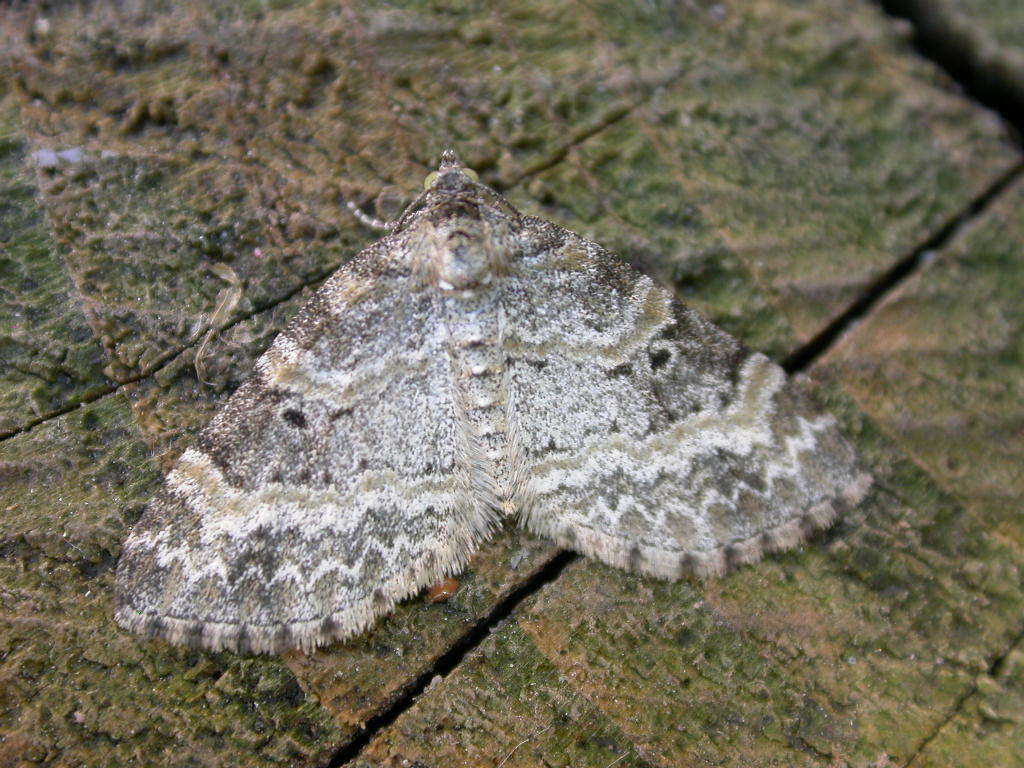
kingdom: Animalia
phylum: Arthropoda
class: Insecta
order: Lepidoptera
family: Geometridae
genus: Pterapherapteryx
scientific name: Pterapherapteryx sexalata
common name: Small seraphim
